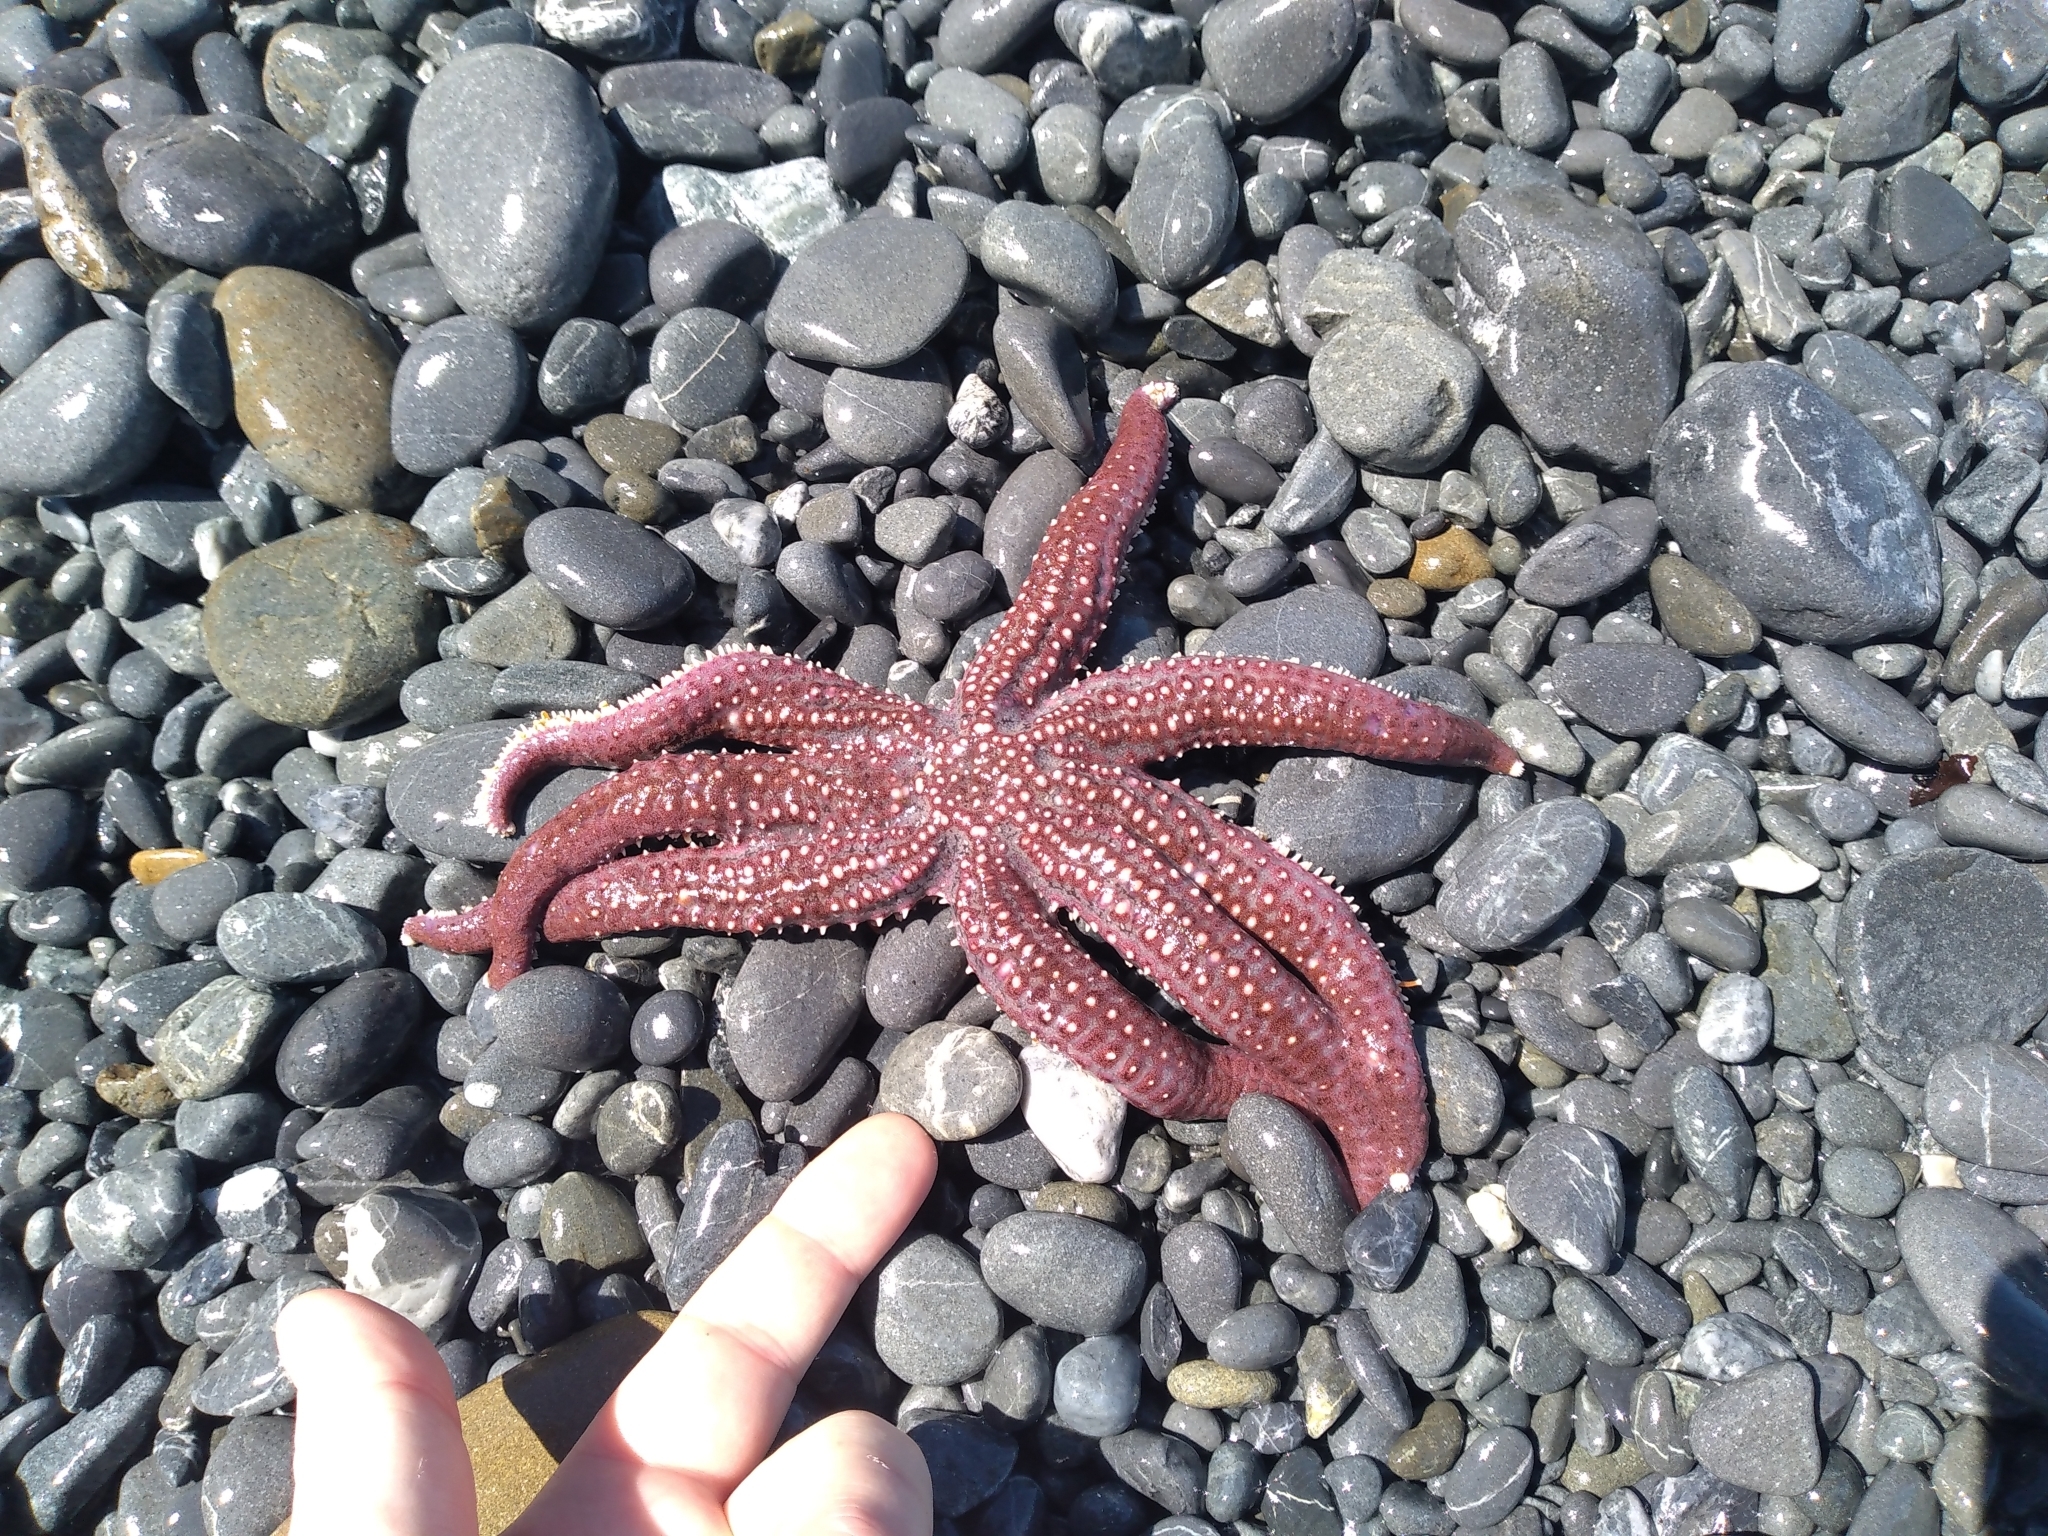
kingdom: Animalia
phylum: Echinodermata
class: Asteroidea
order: Forcipulatida
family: Asteriidae
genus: Astrostole
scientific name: Astrostole scabra
